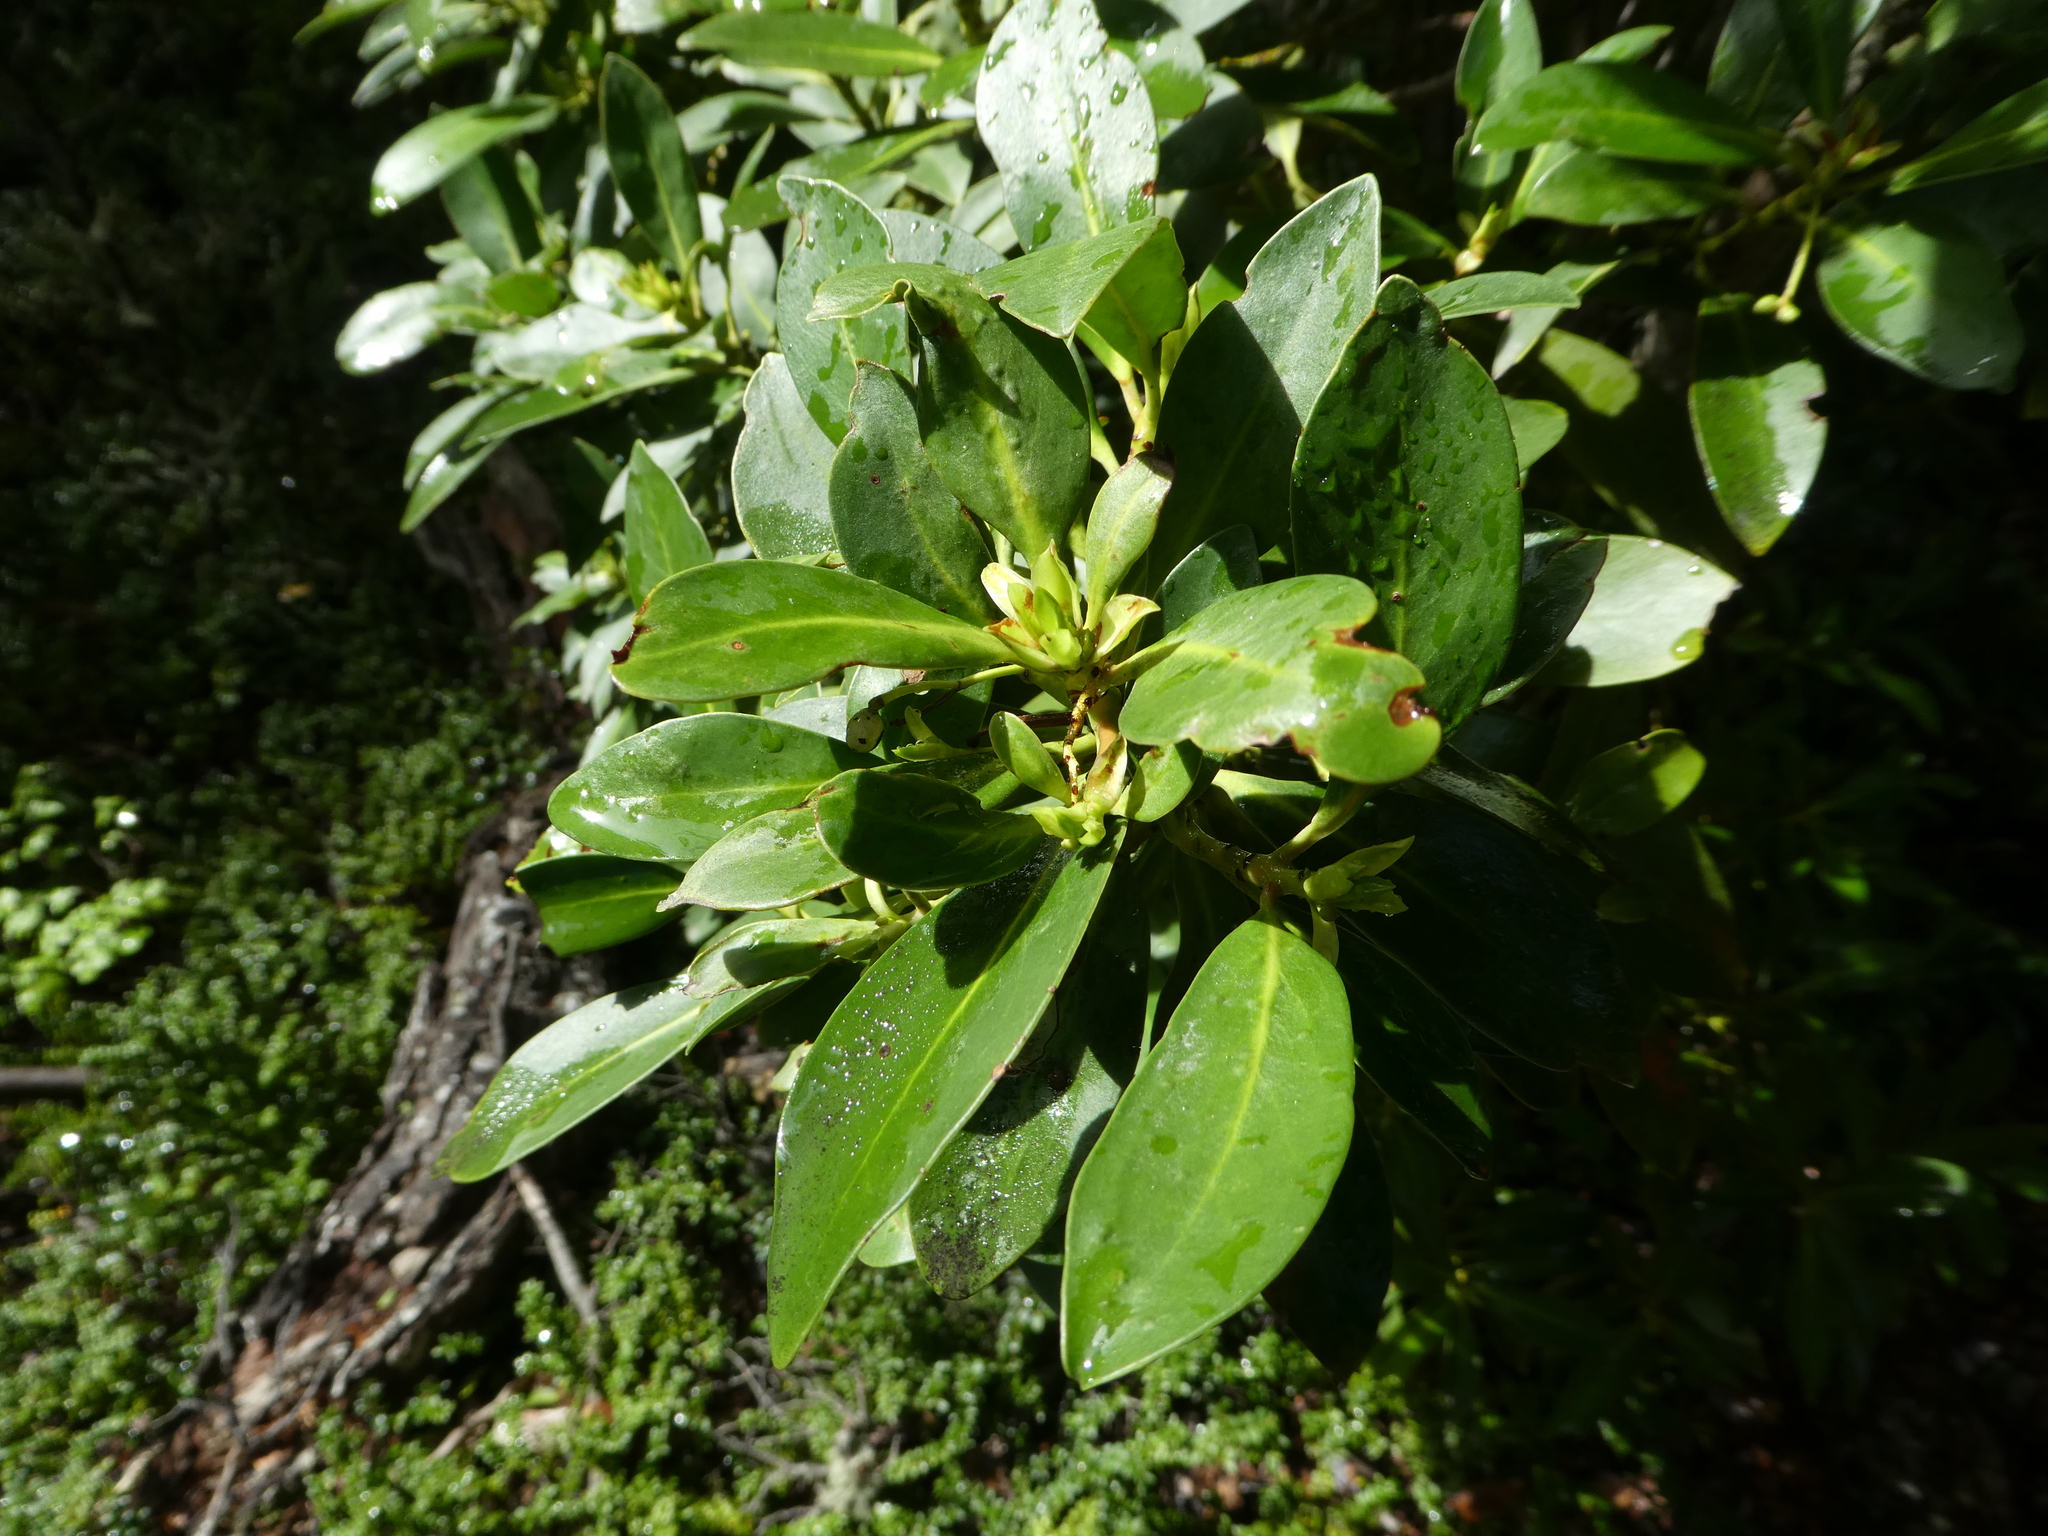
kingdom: Plantae
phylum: Tracheophyta
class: Magnoliopsida
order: Canellales
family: Winteraceae
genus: Drimys
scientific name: Drimys winteri
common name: Winter's-bark
